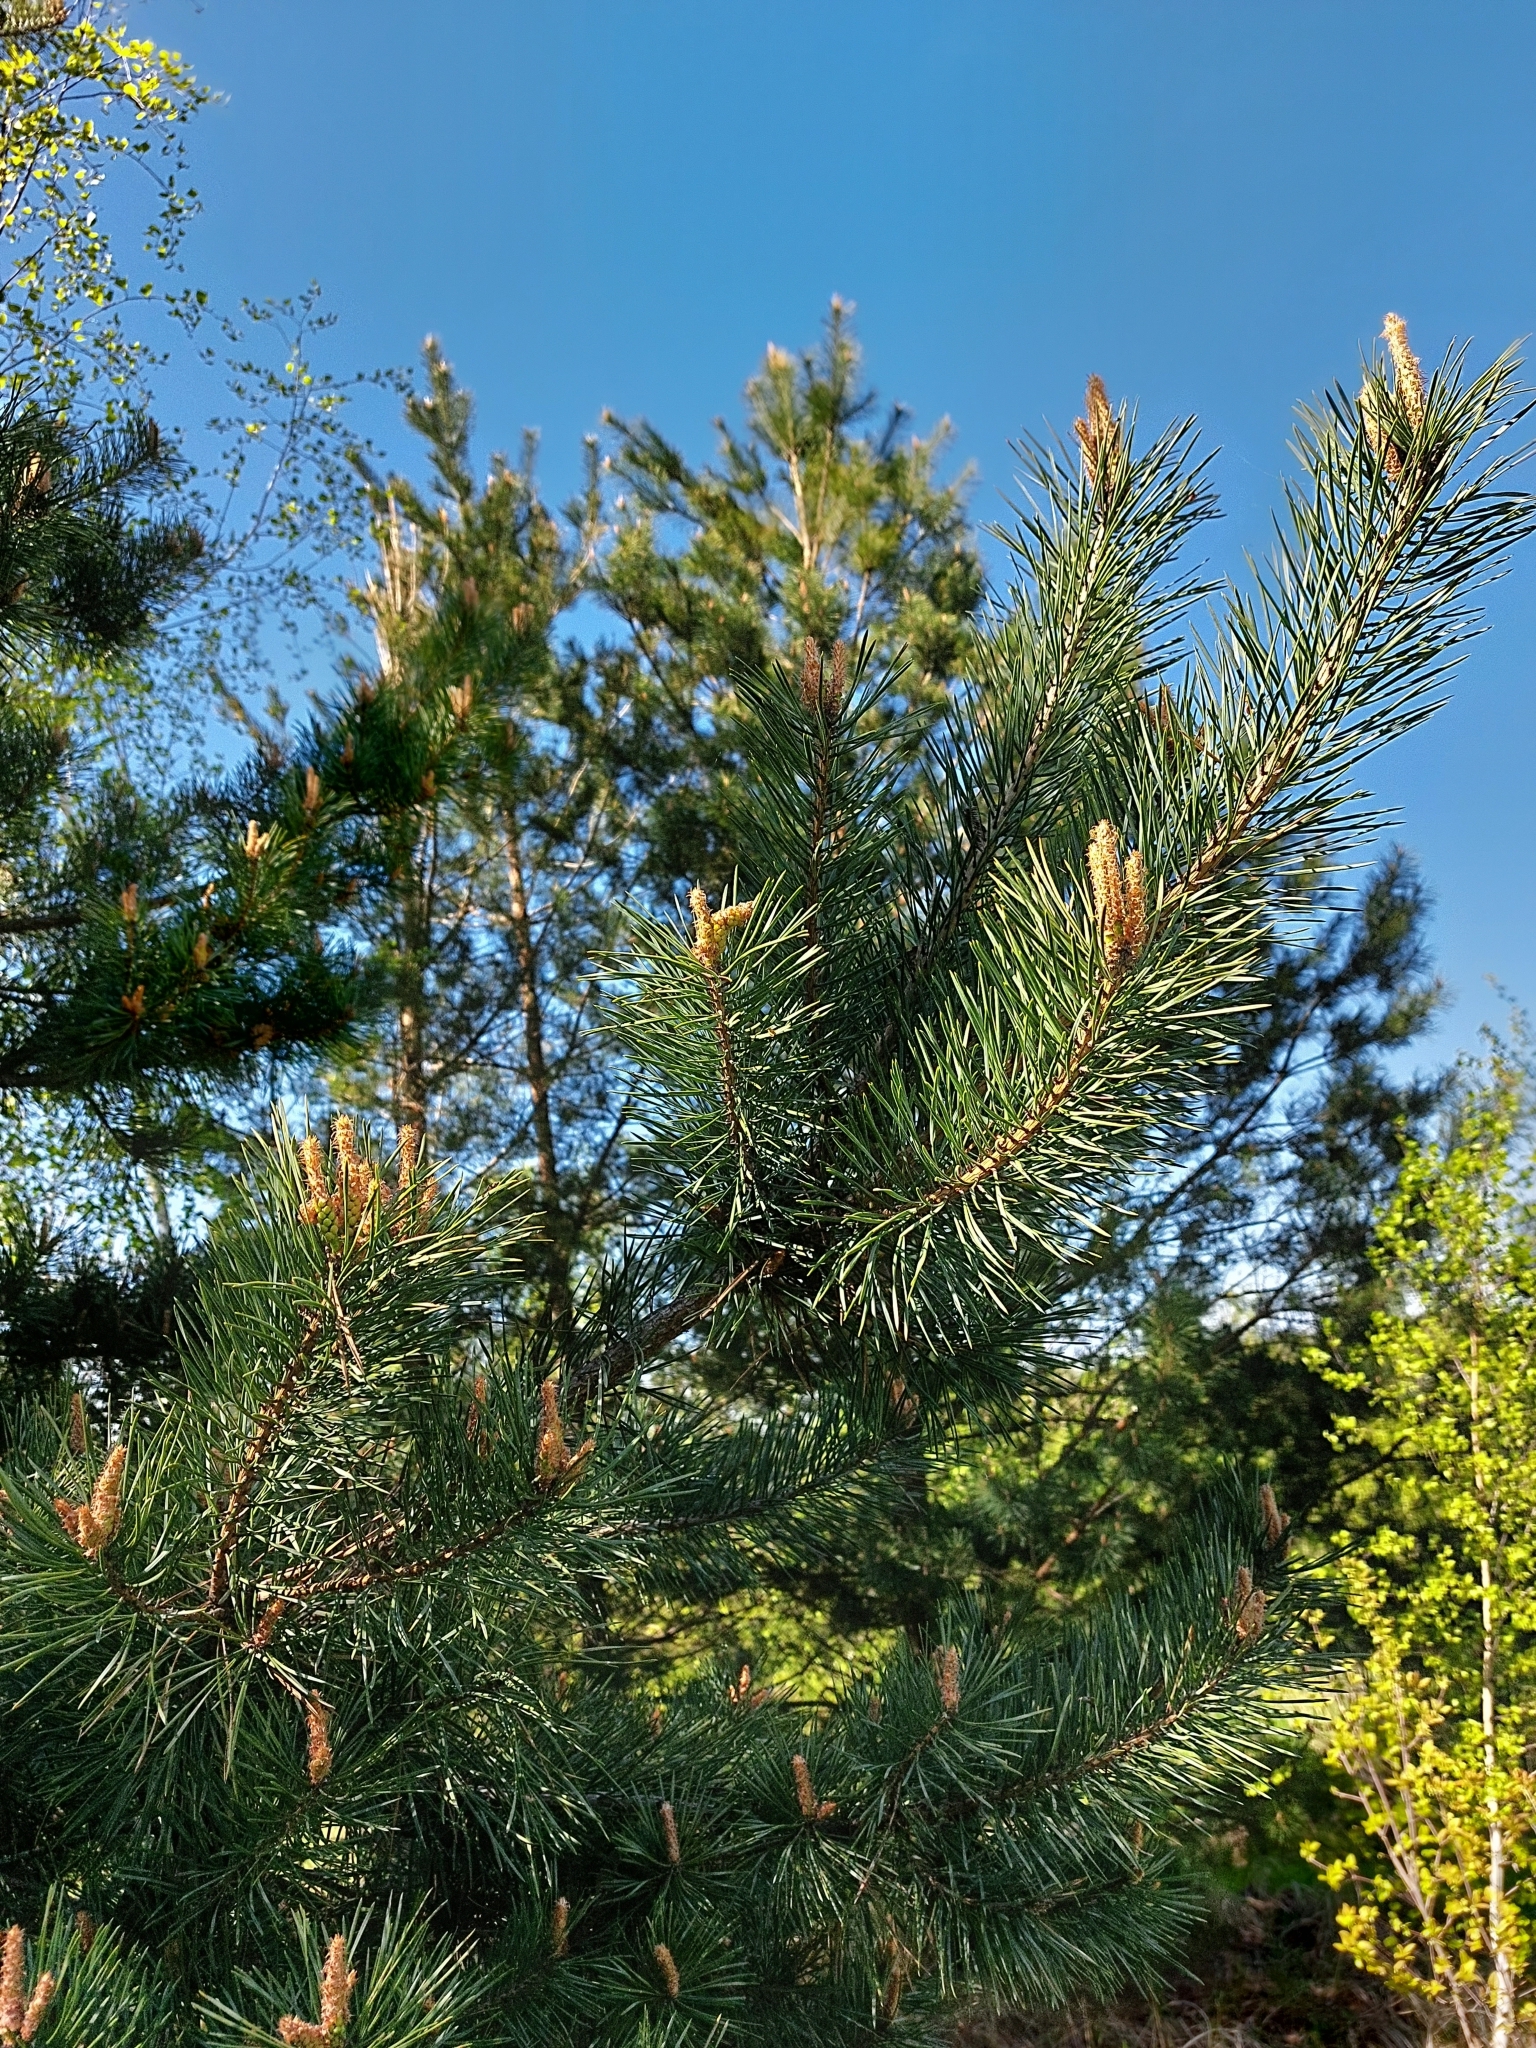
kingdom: Plantae
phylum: Tracheophyta
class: Pinopsida
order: Pinales
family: Pinaceae
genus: Pinus
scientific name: Pinus sylvestris
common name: Scots pine
